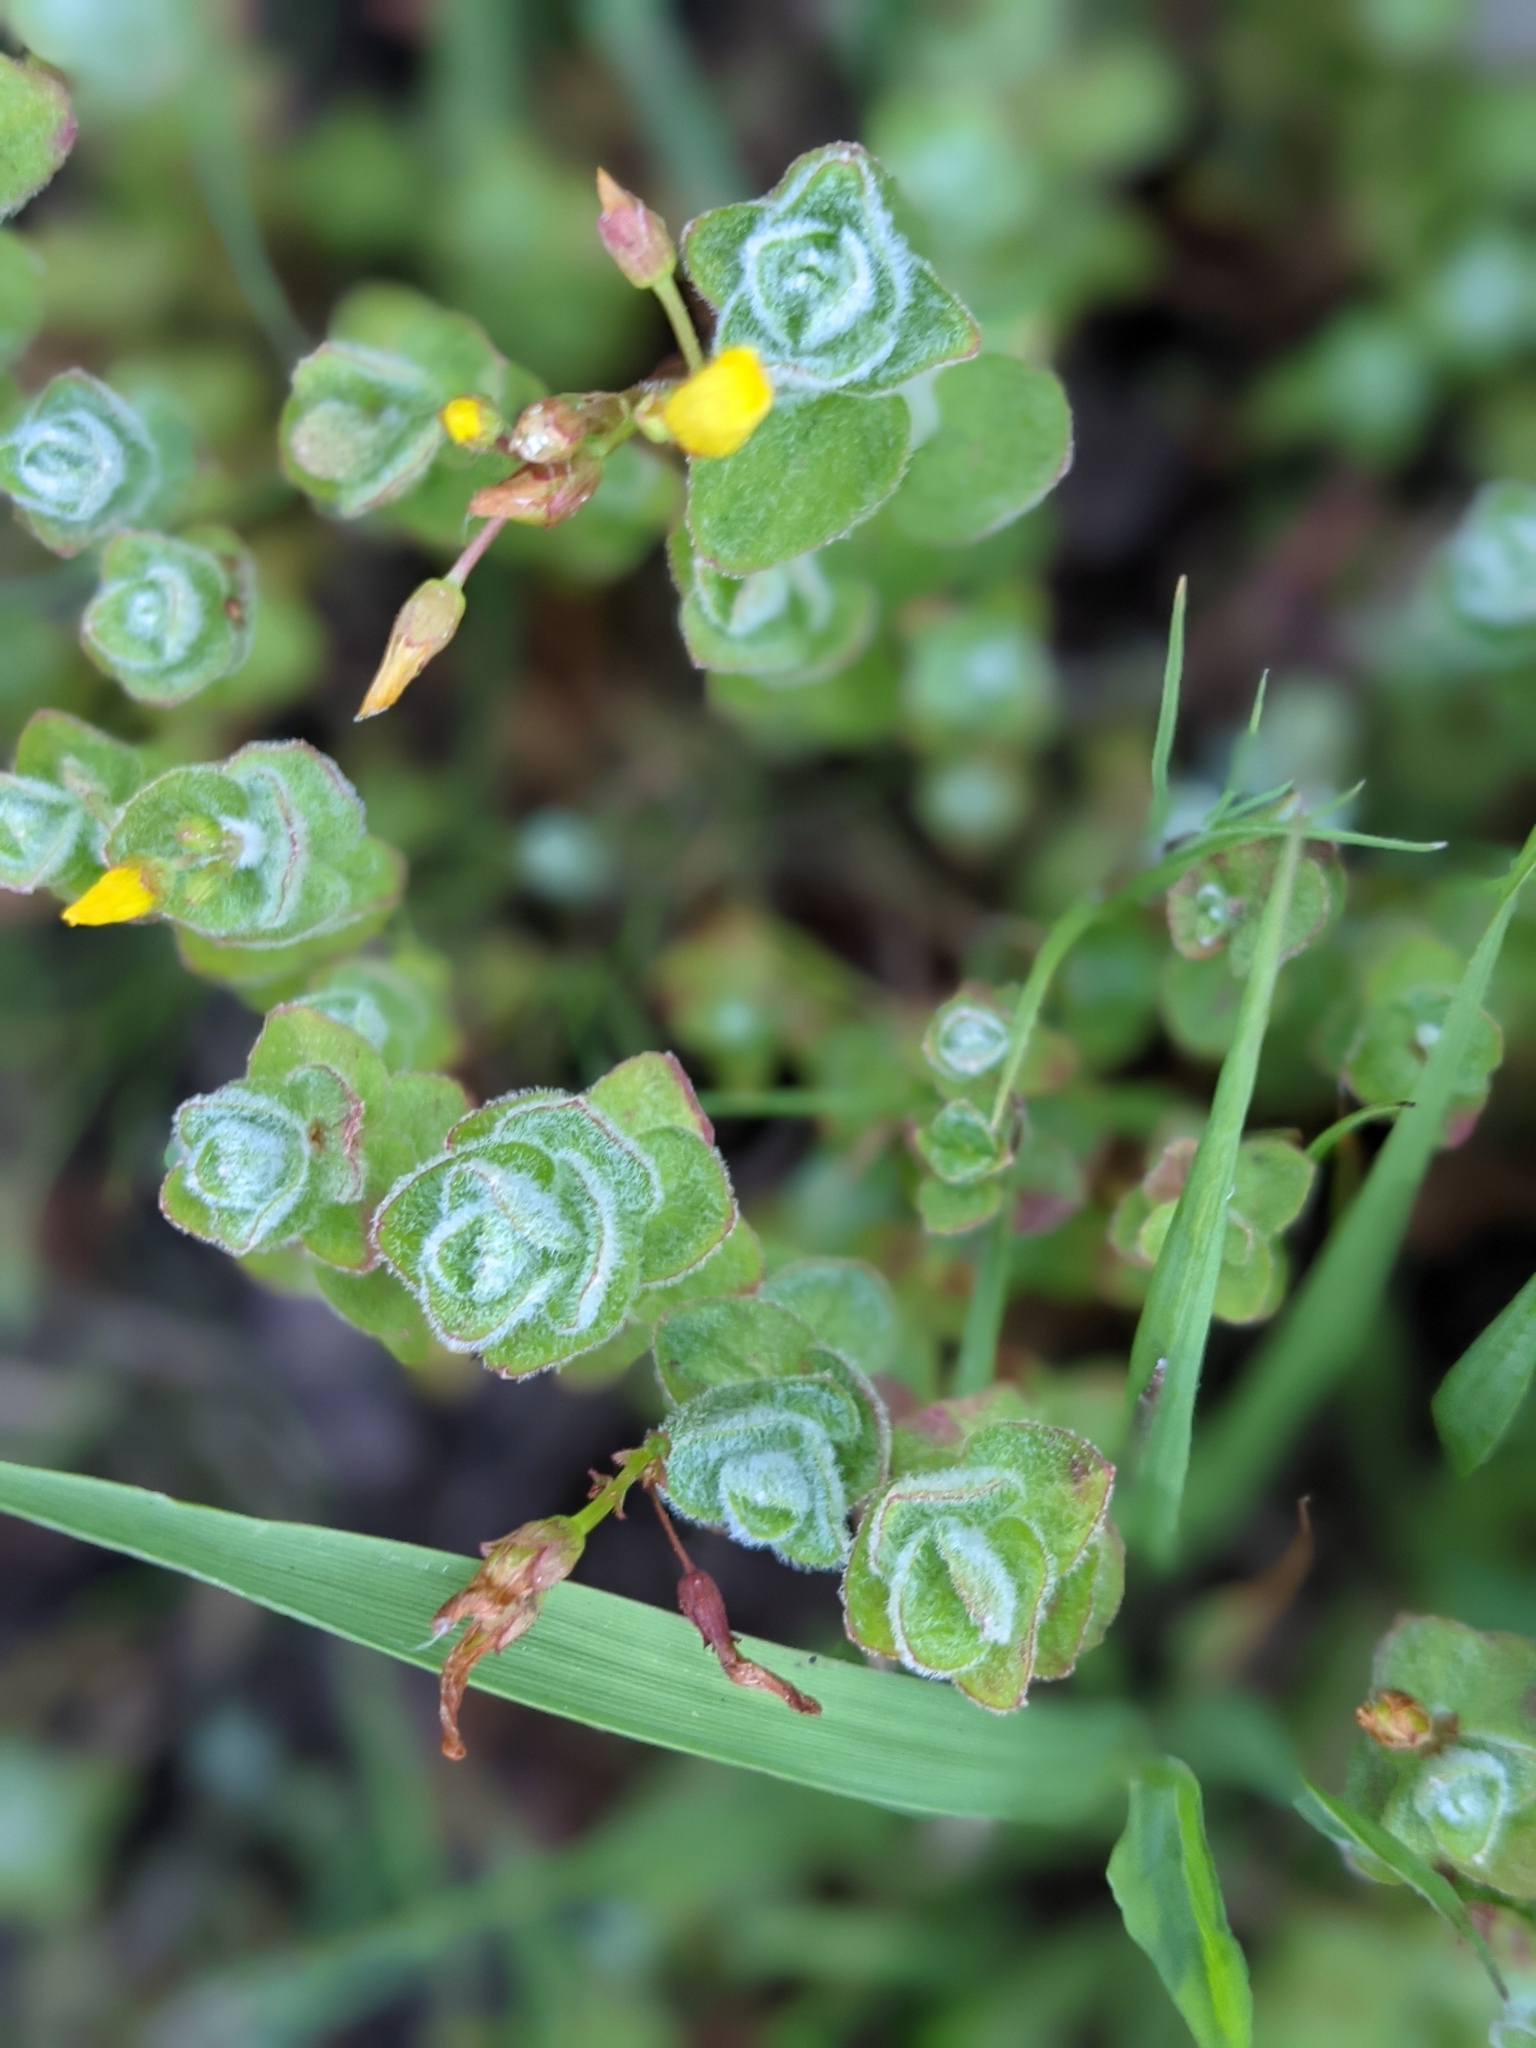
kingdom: Plantae
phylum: Tracheophyta
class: Magnoliopsida
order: Malpighiales
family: Hypericaceae
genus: Hypericum
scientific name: Hypericum elodes
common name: Marsh st. john's-wort
